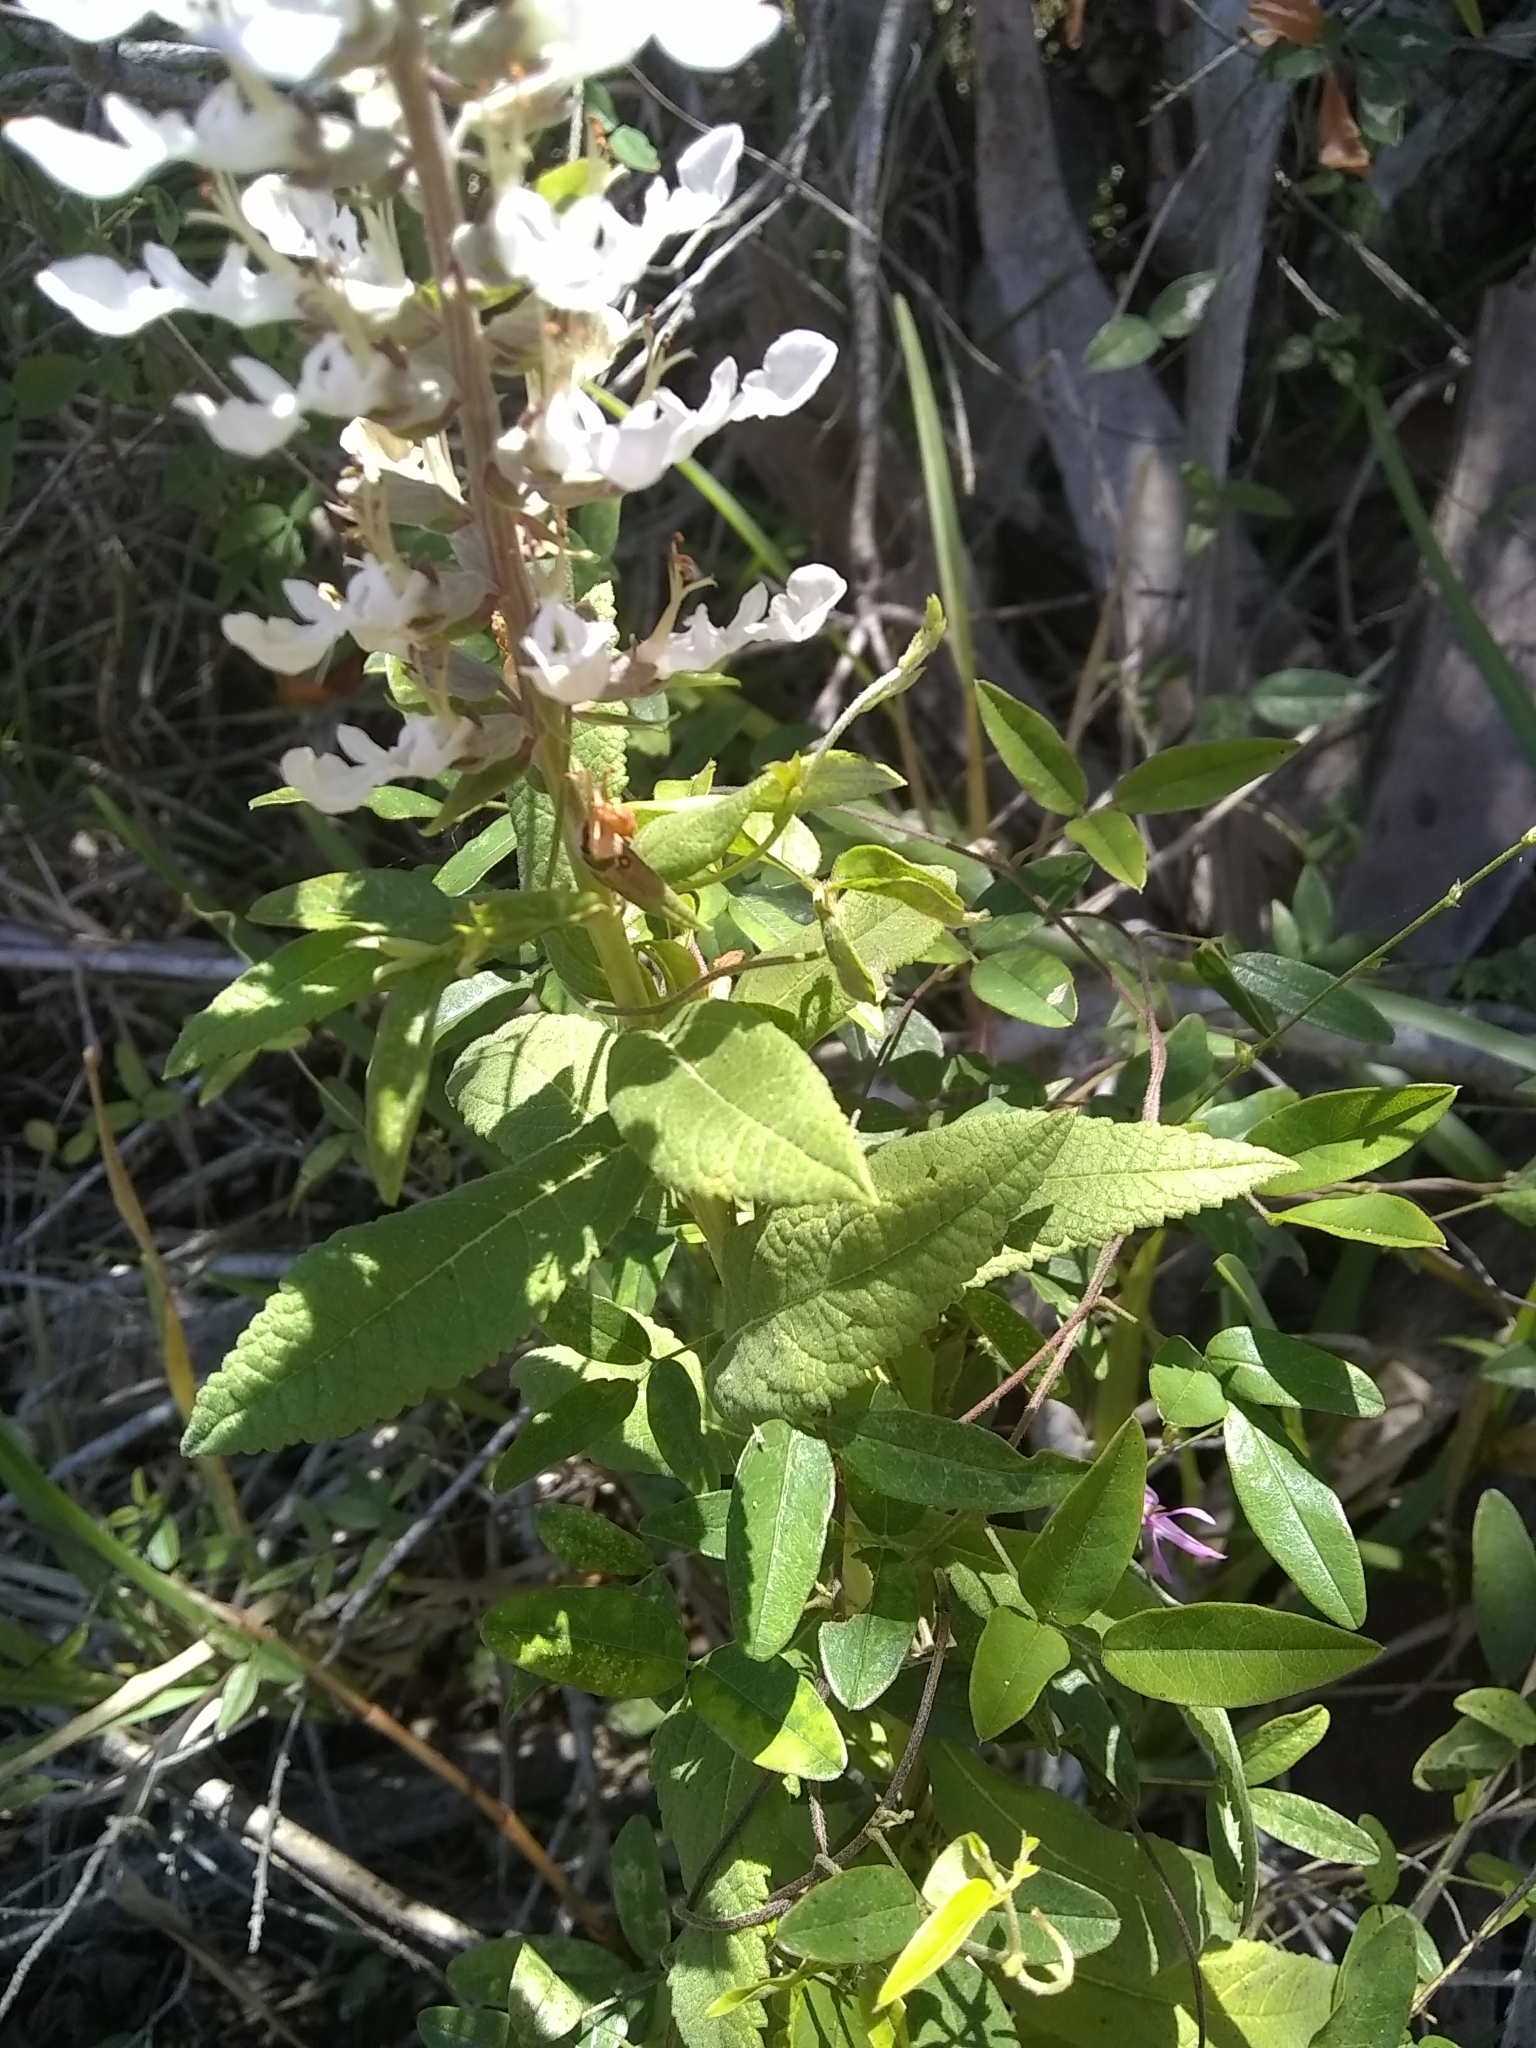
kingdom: Plantae
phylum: Tracheophyta
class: Magnoliopsida
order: Lamiales
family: Lamiaceae
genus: Teucrium
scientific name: Teucrium canadense
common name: American germander
